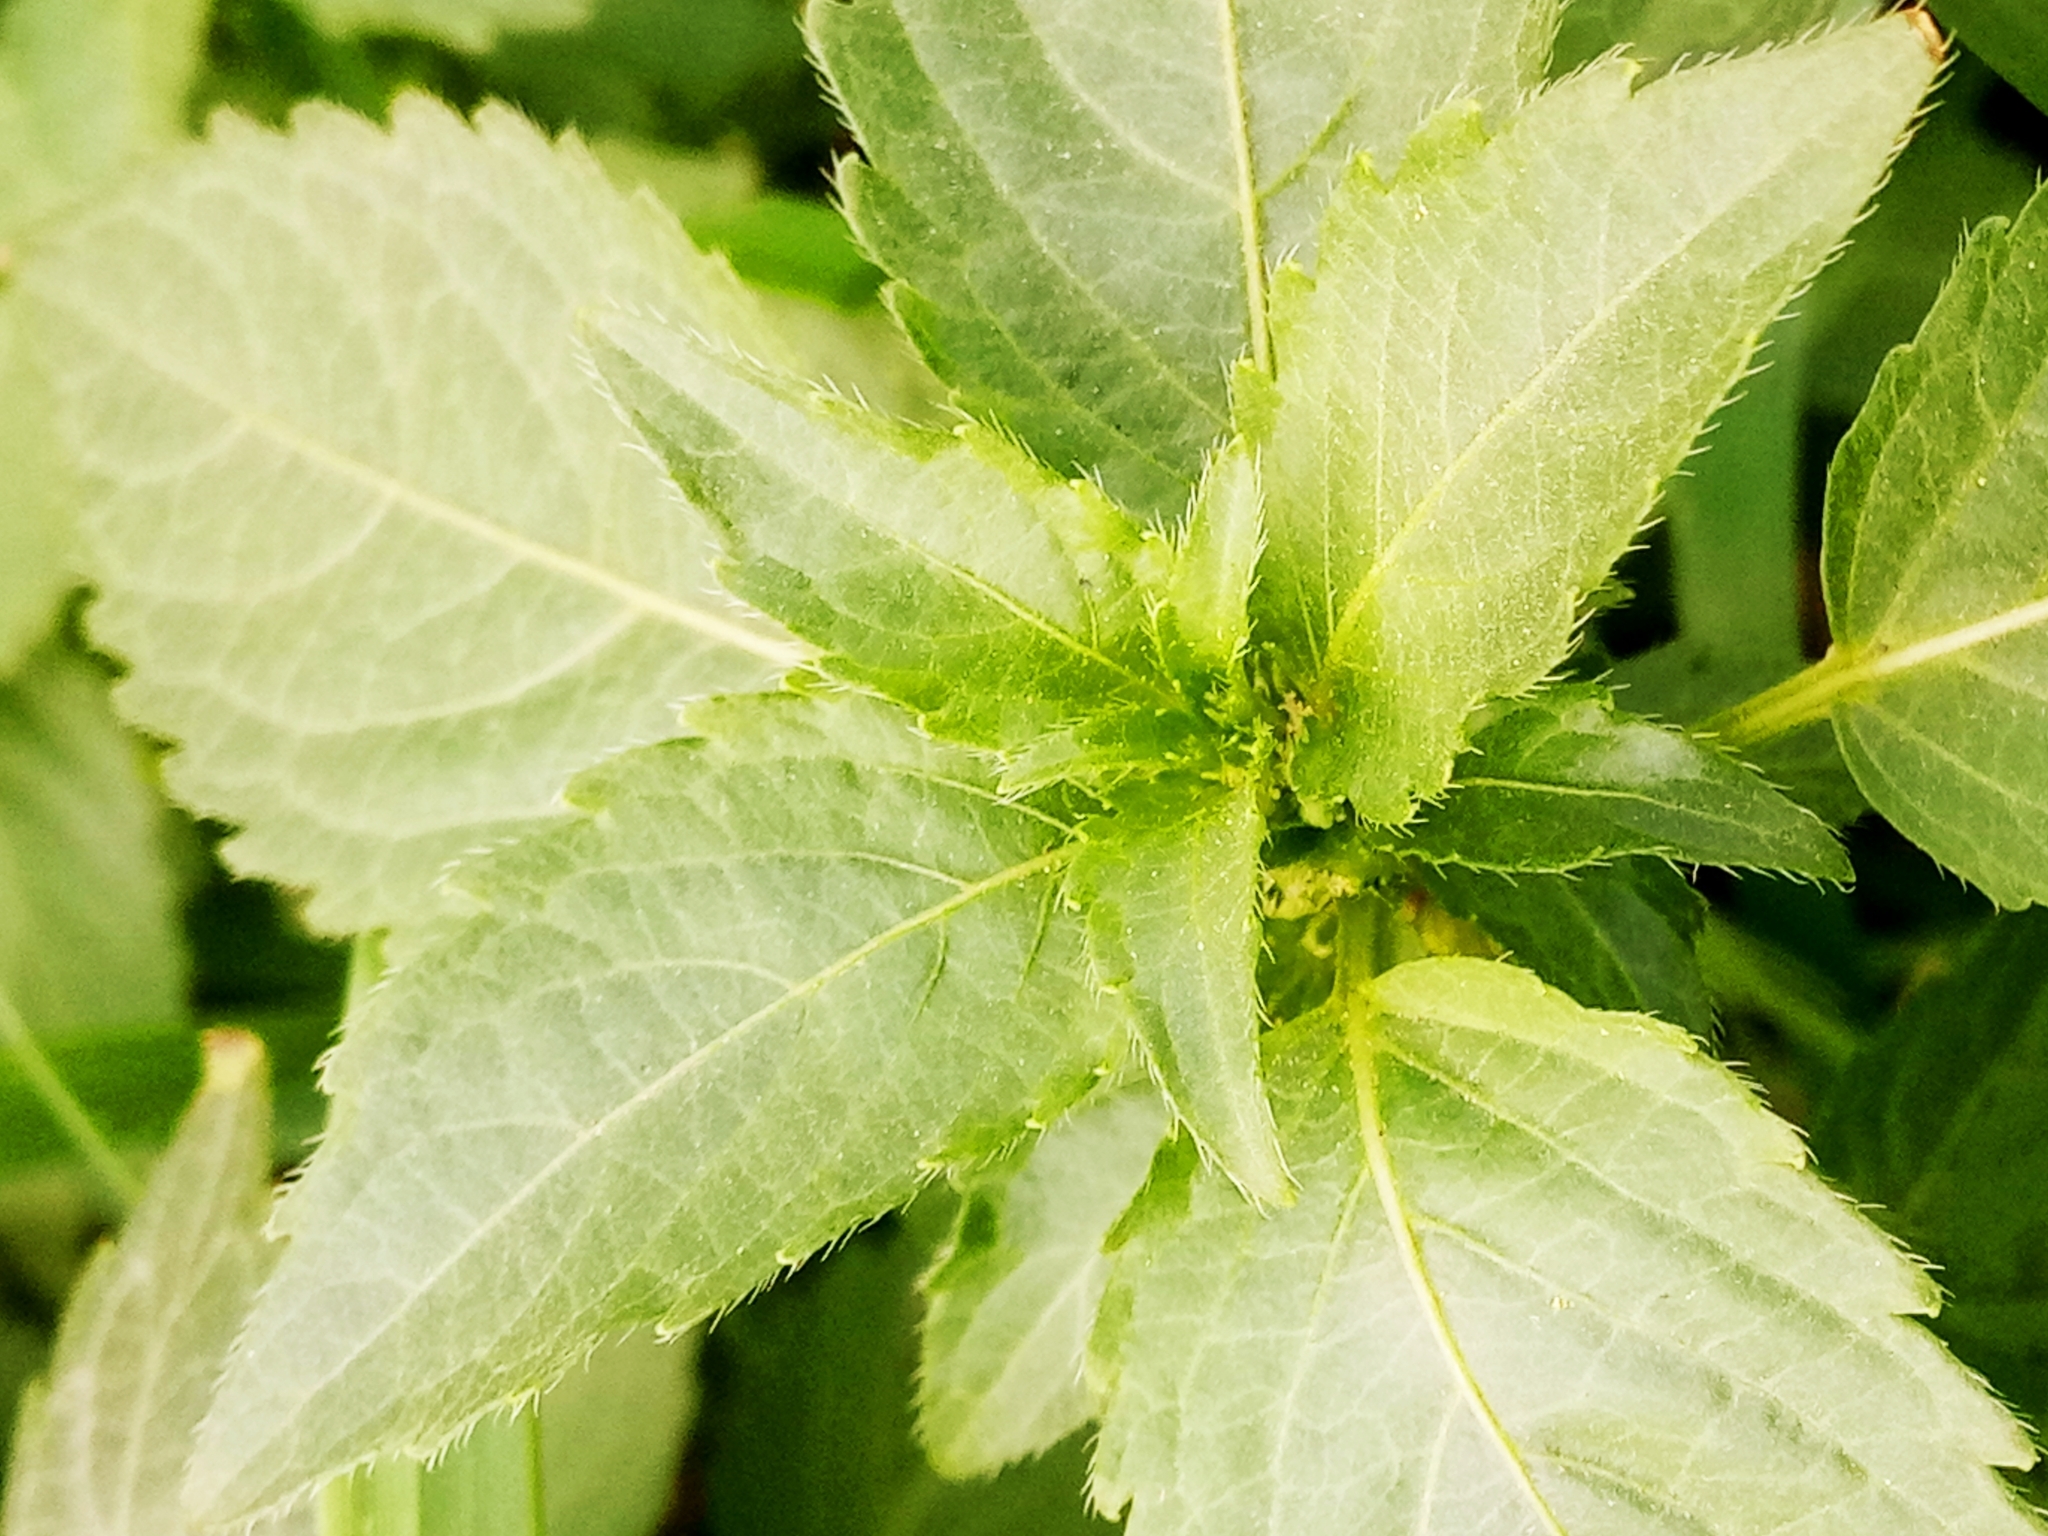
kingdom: Plantae
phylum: Tracheophyta
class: Magnoliopsida
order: Malpighiales
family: Euphorbiaceae
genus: Mercurialis
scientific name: Mercurialis annua
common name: Annual mercury
